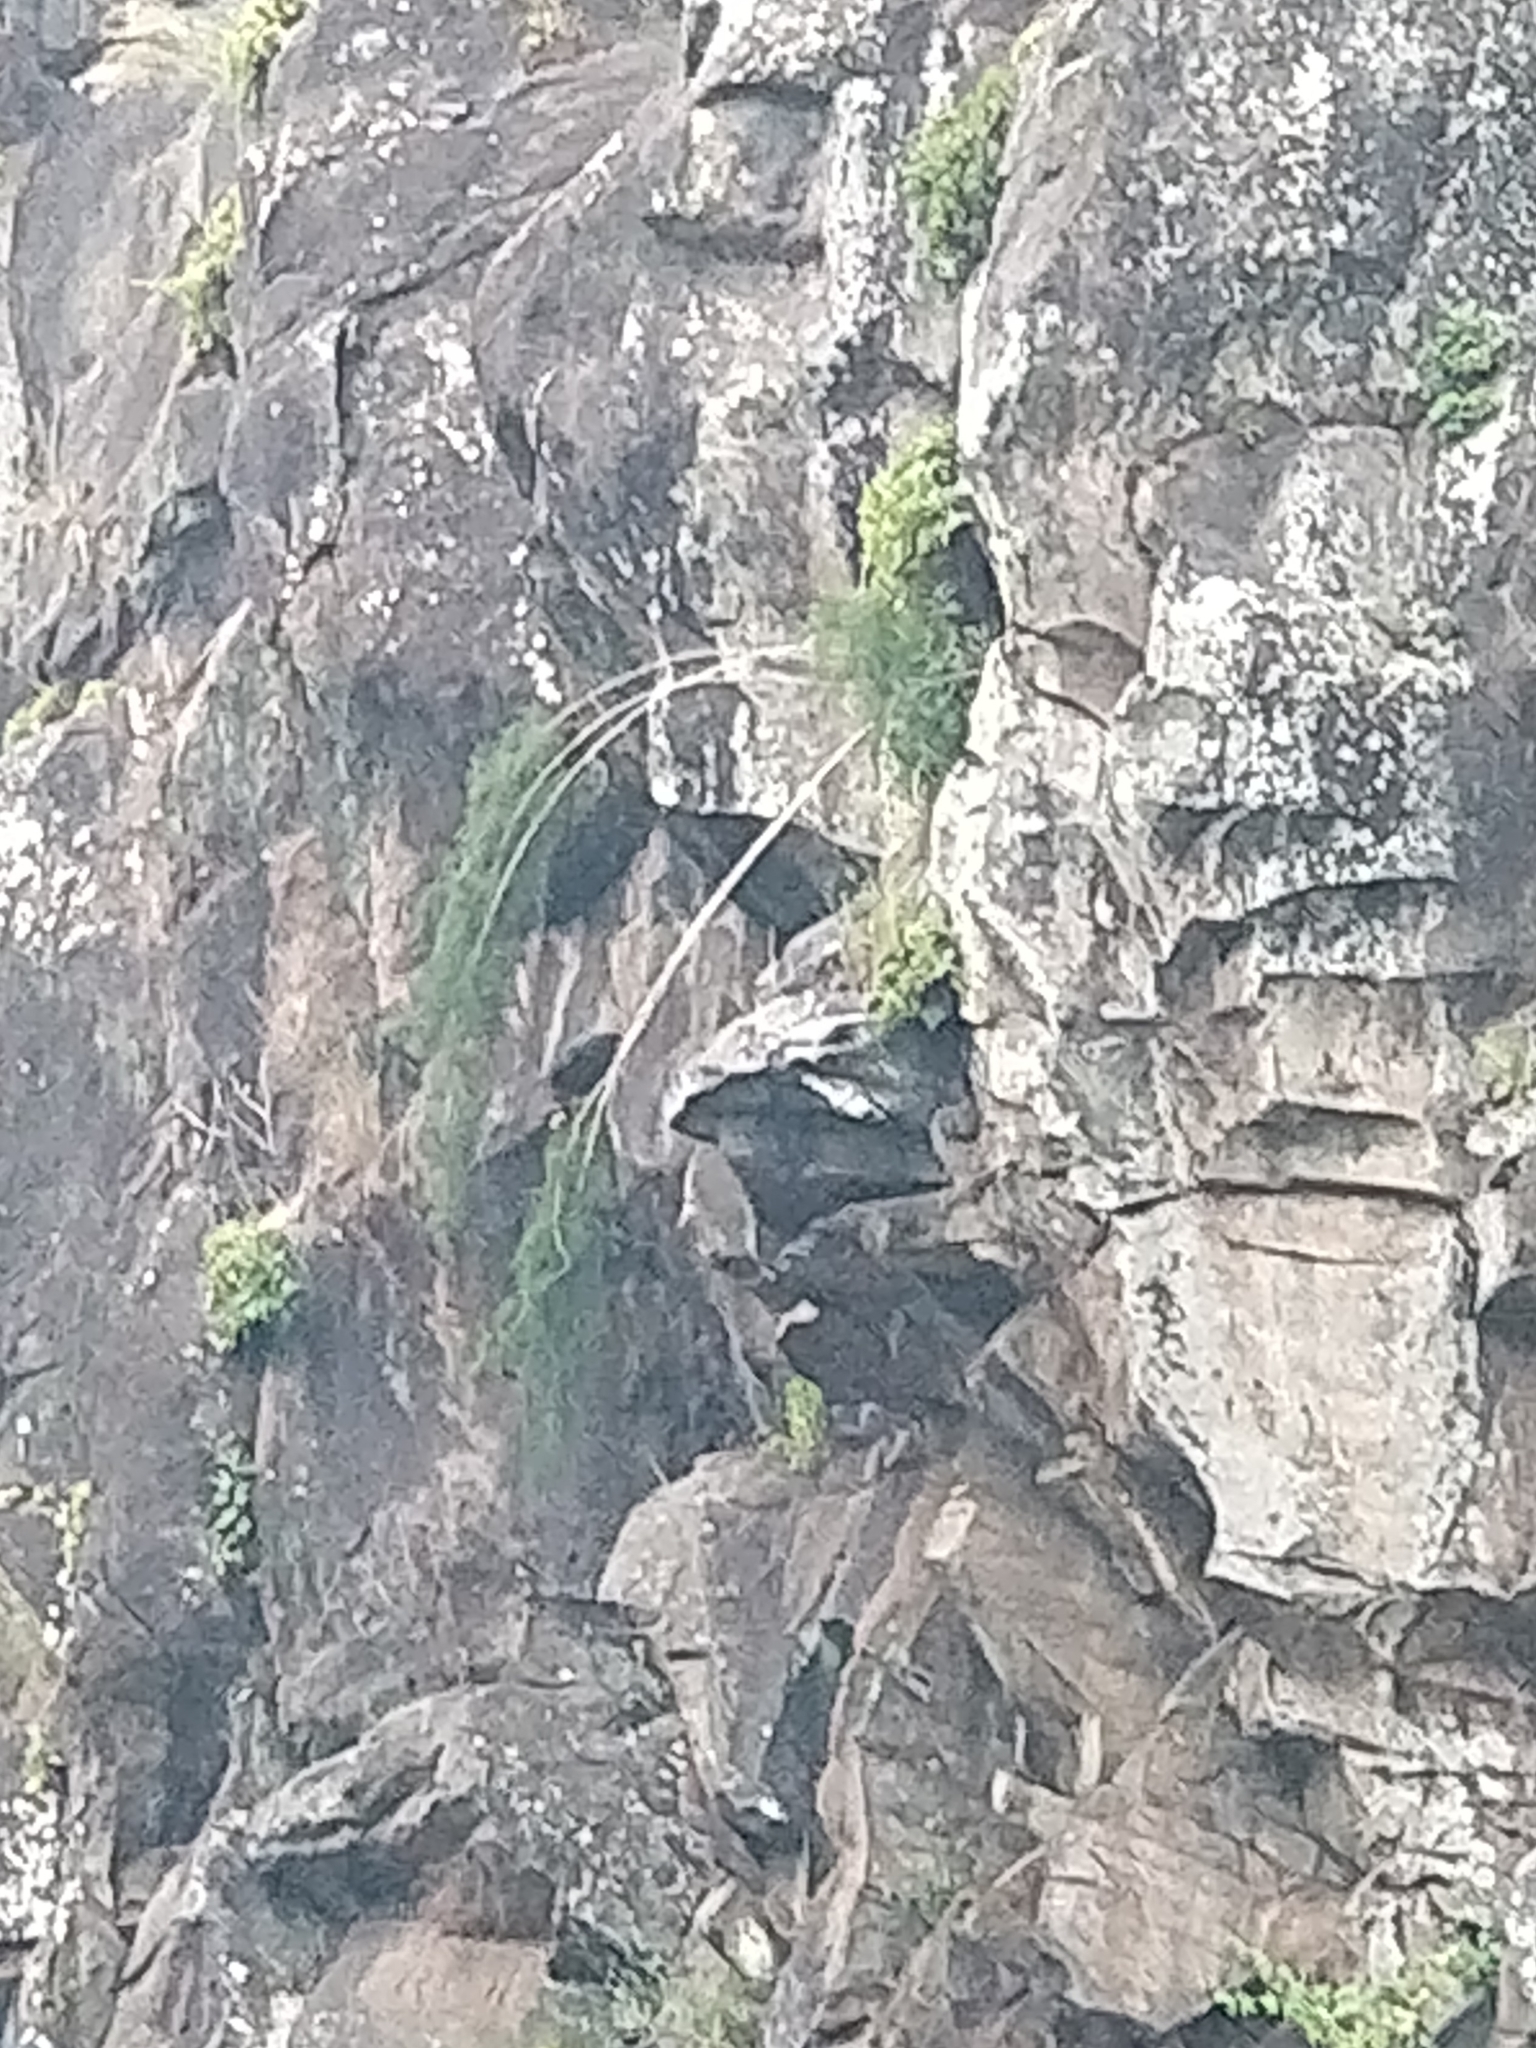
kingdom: Plantae
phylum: Tracheophyta
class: Liliopsida
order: Asparagales
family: Asparagaceae
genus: Asparagus
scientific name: Asparagus umbellatus
